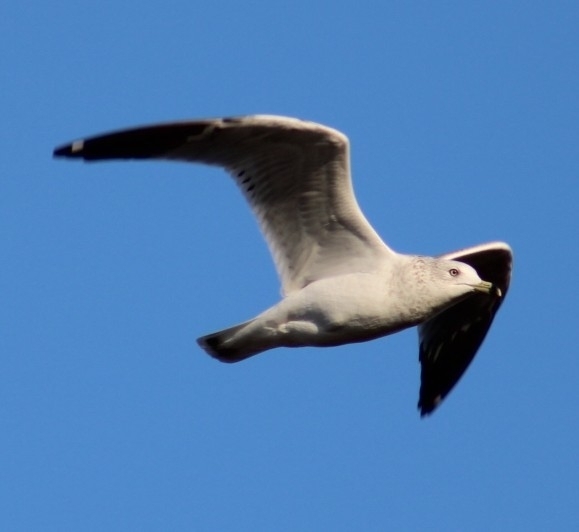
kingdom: Animalia
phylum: Chordata
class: Aves
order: Charadriiformes
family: Laridae
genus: Larus
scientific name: Larus delawarensis
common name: Ring-billed gull
